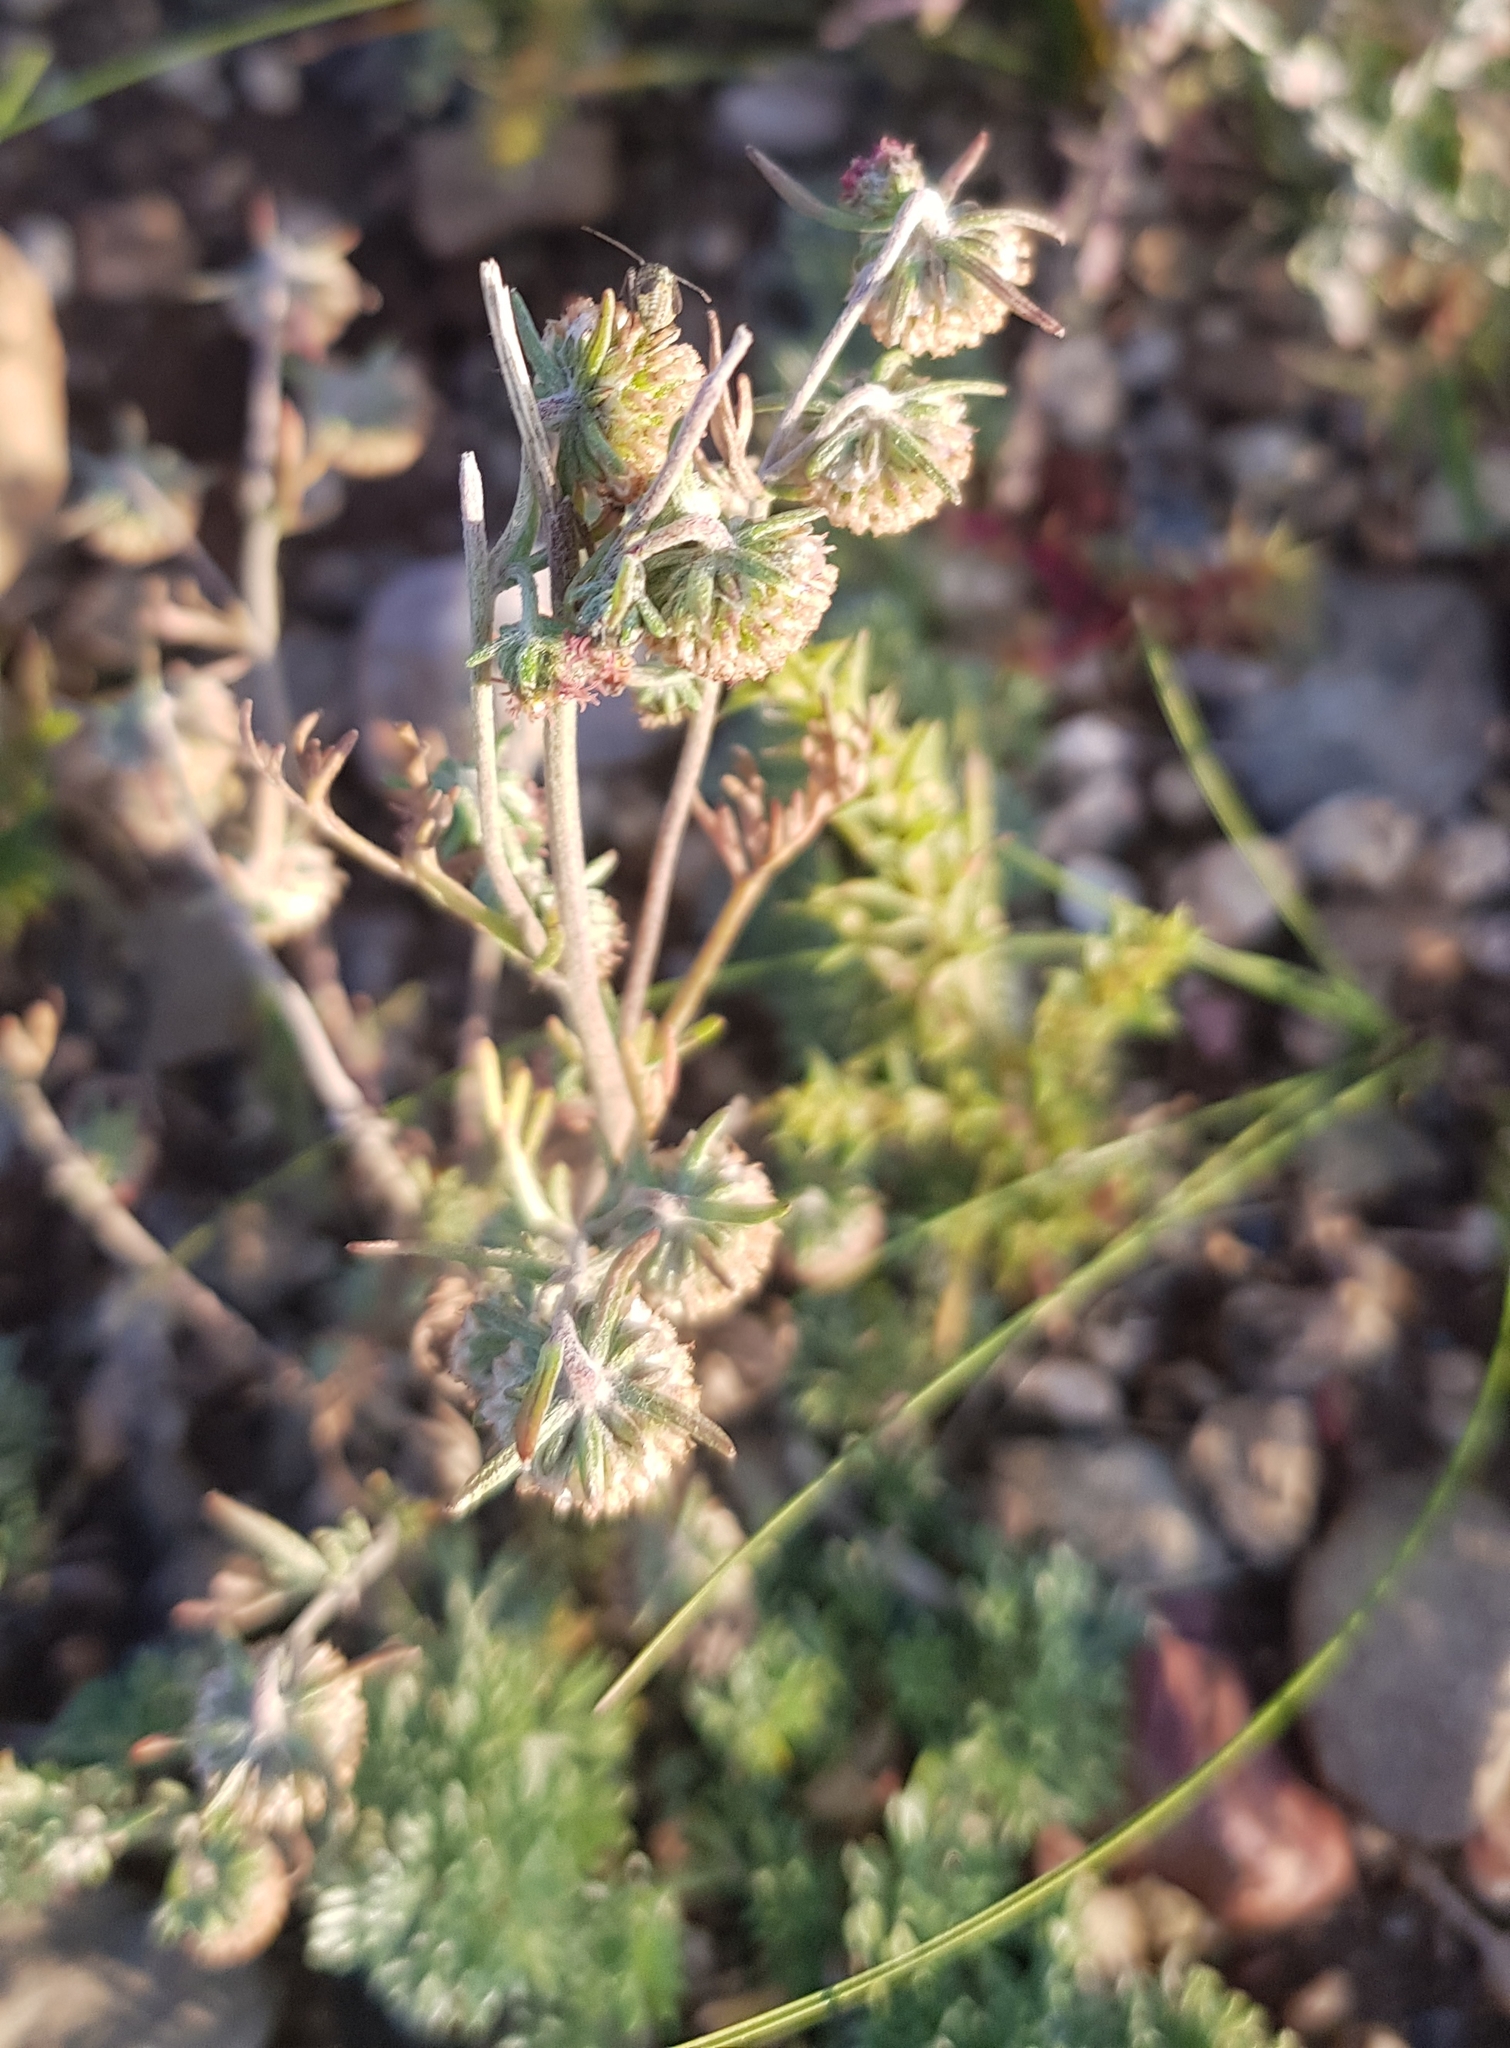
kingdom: Plantae
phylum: Tracheophyta
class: Magnoliopsida
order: Asterales
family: Asteraceae
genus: Artemisia
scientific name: Artemisia macrocephala
